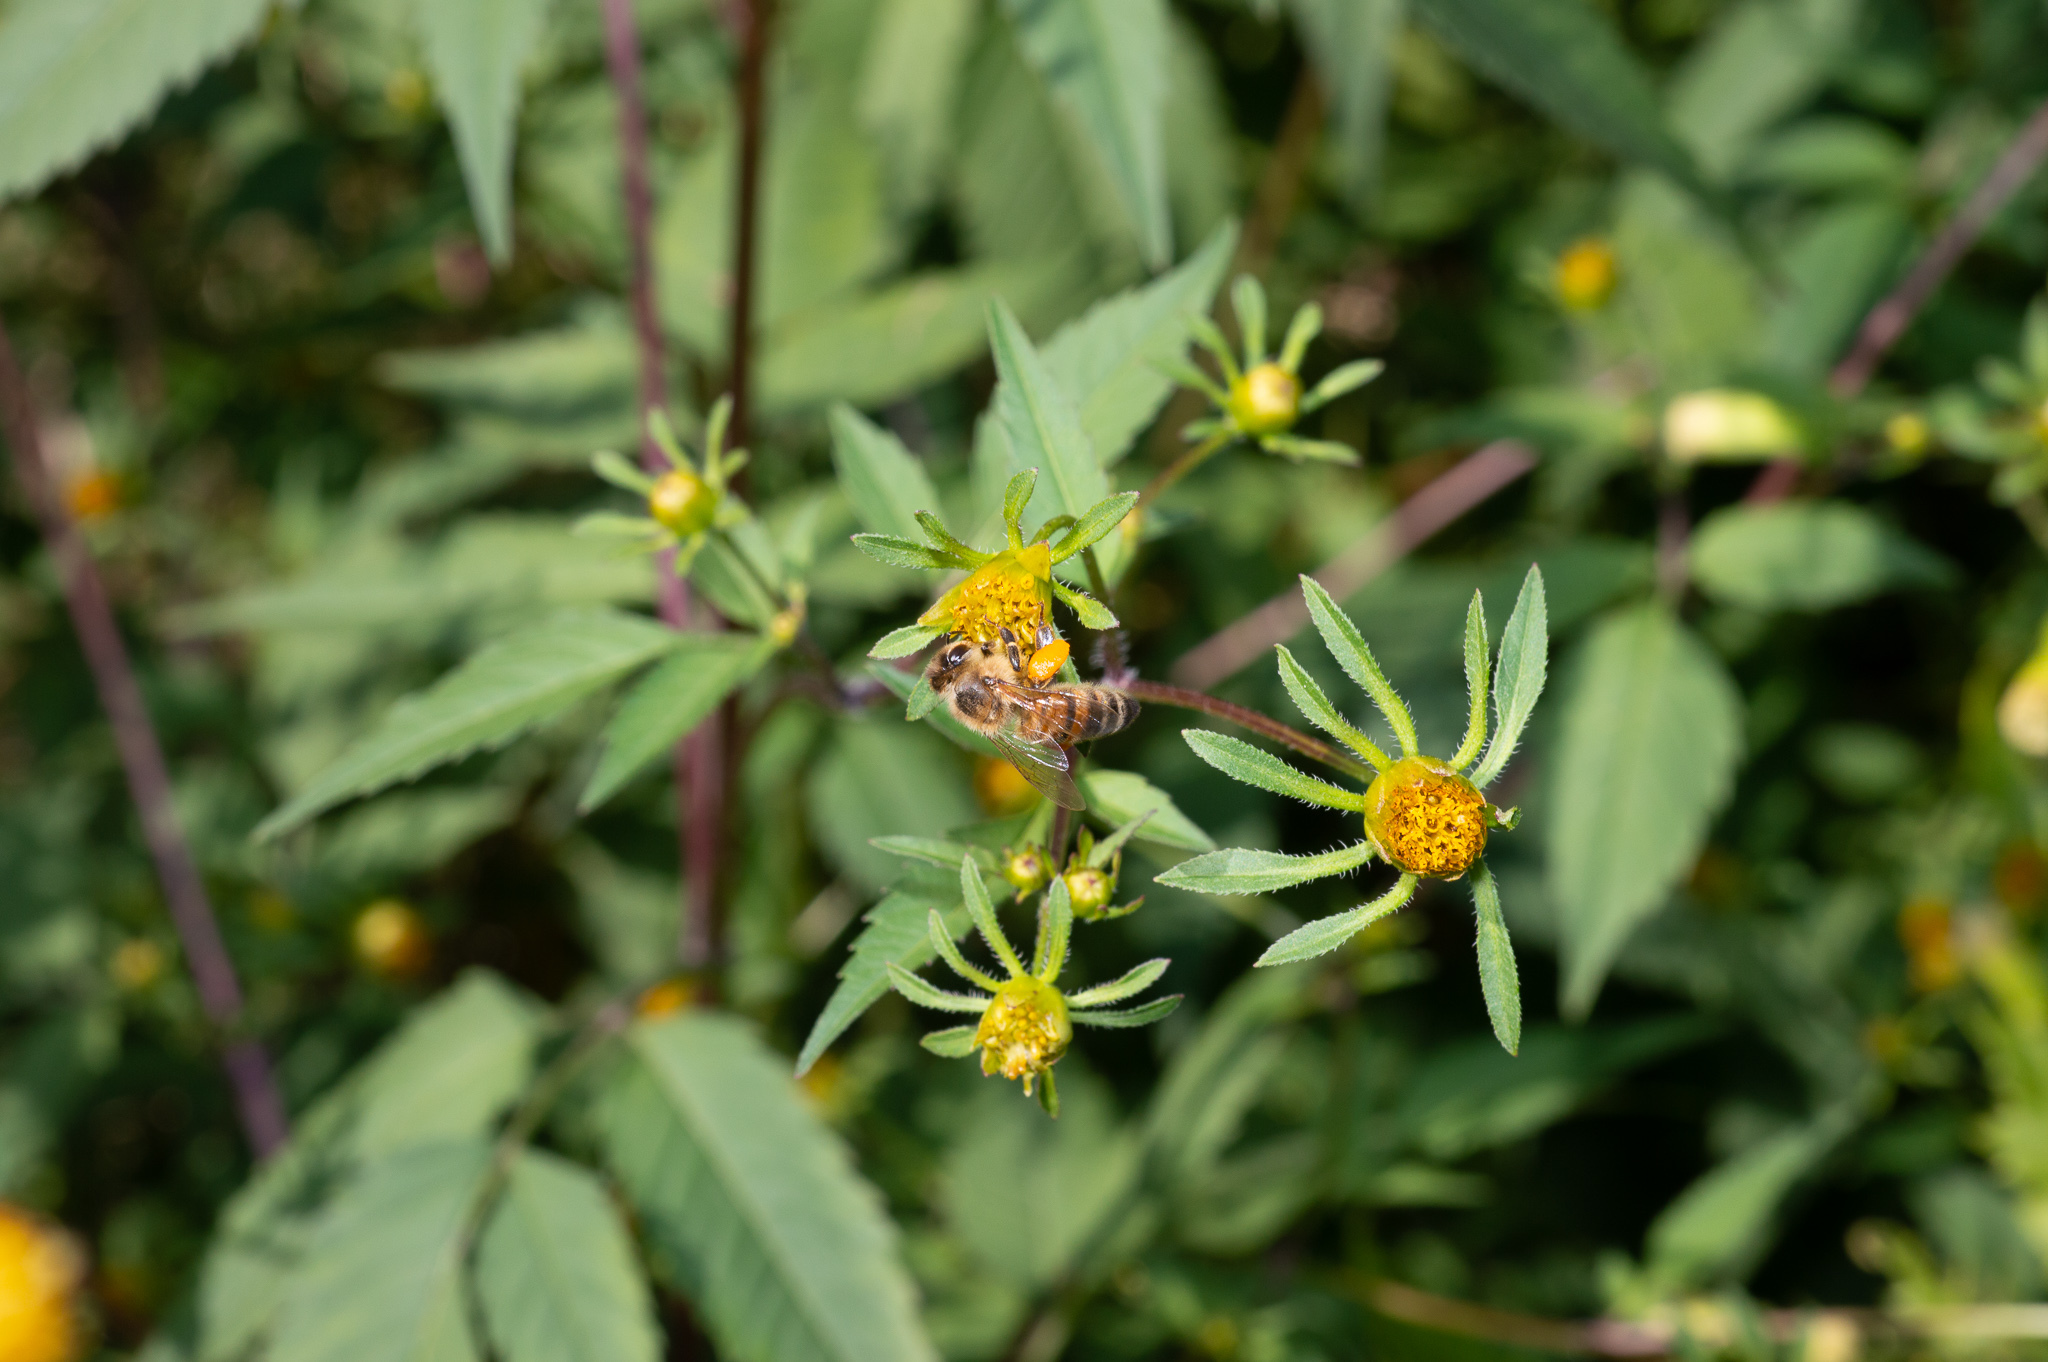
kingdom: Animalia
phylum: Arthropoda
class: Insecta
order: Hymenoptera
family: Apidae
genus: Apis
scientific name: Apis mellifera
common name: Honey bee
